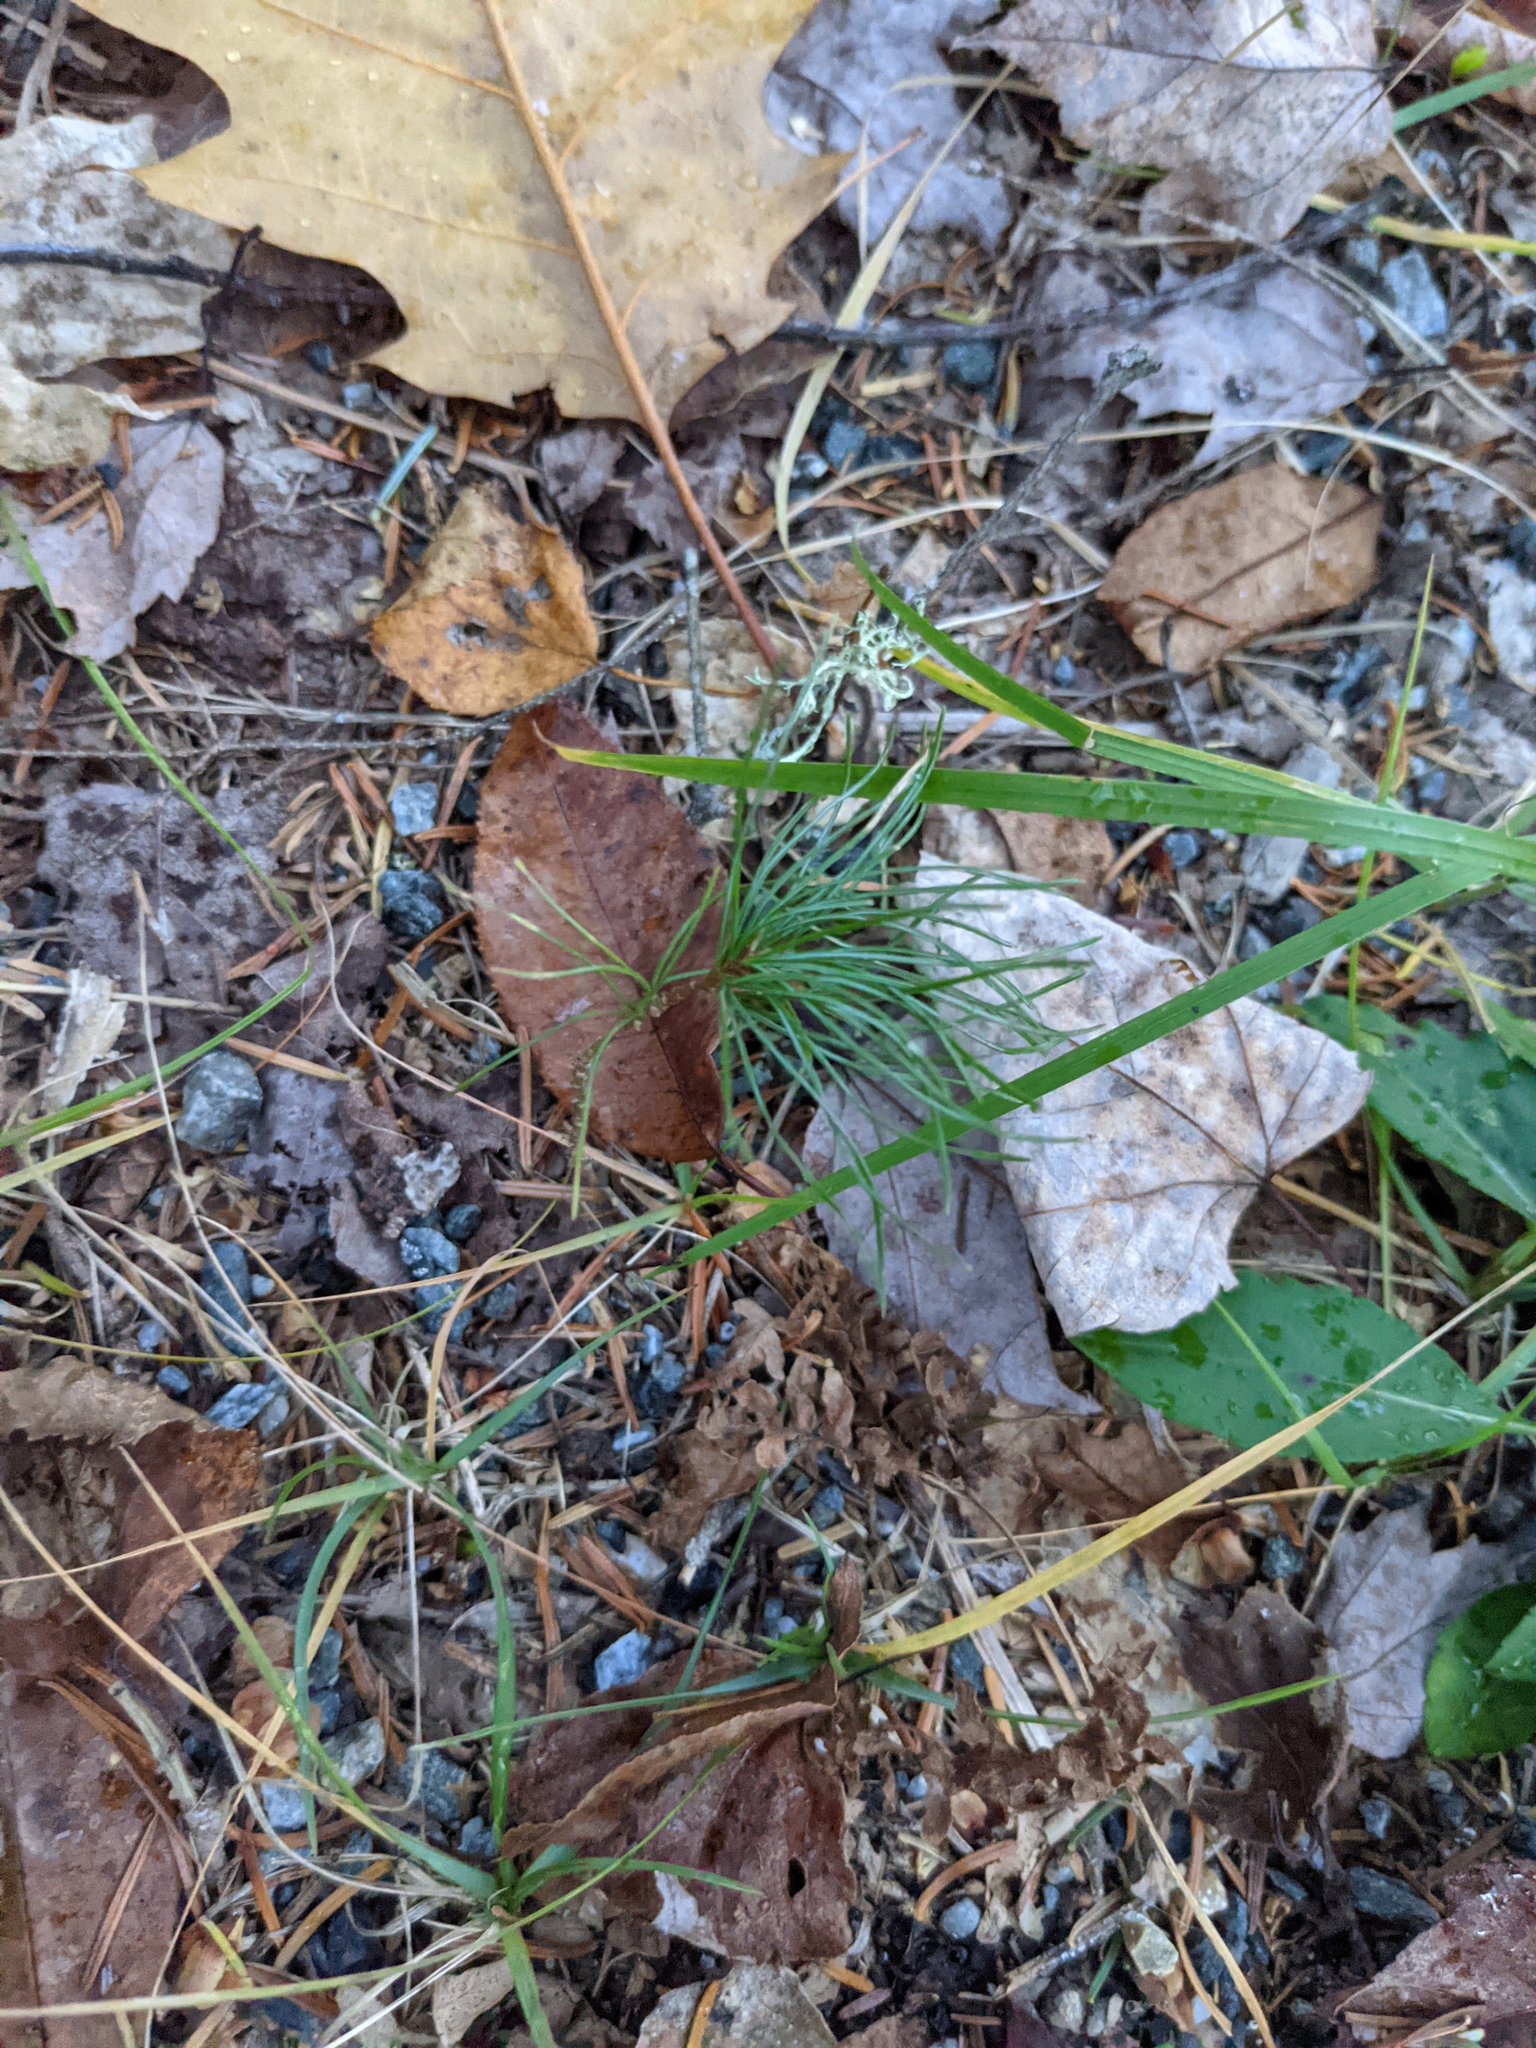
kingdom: Plantae
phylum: Tracheophyta
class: Pinopsida
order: Pinales
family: Pinaceae
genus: Pinus
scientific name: Pinus strobus
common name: Weymouth pine
